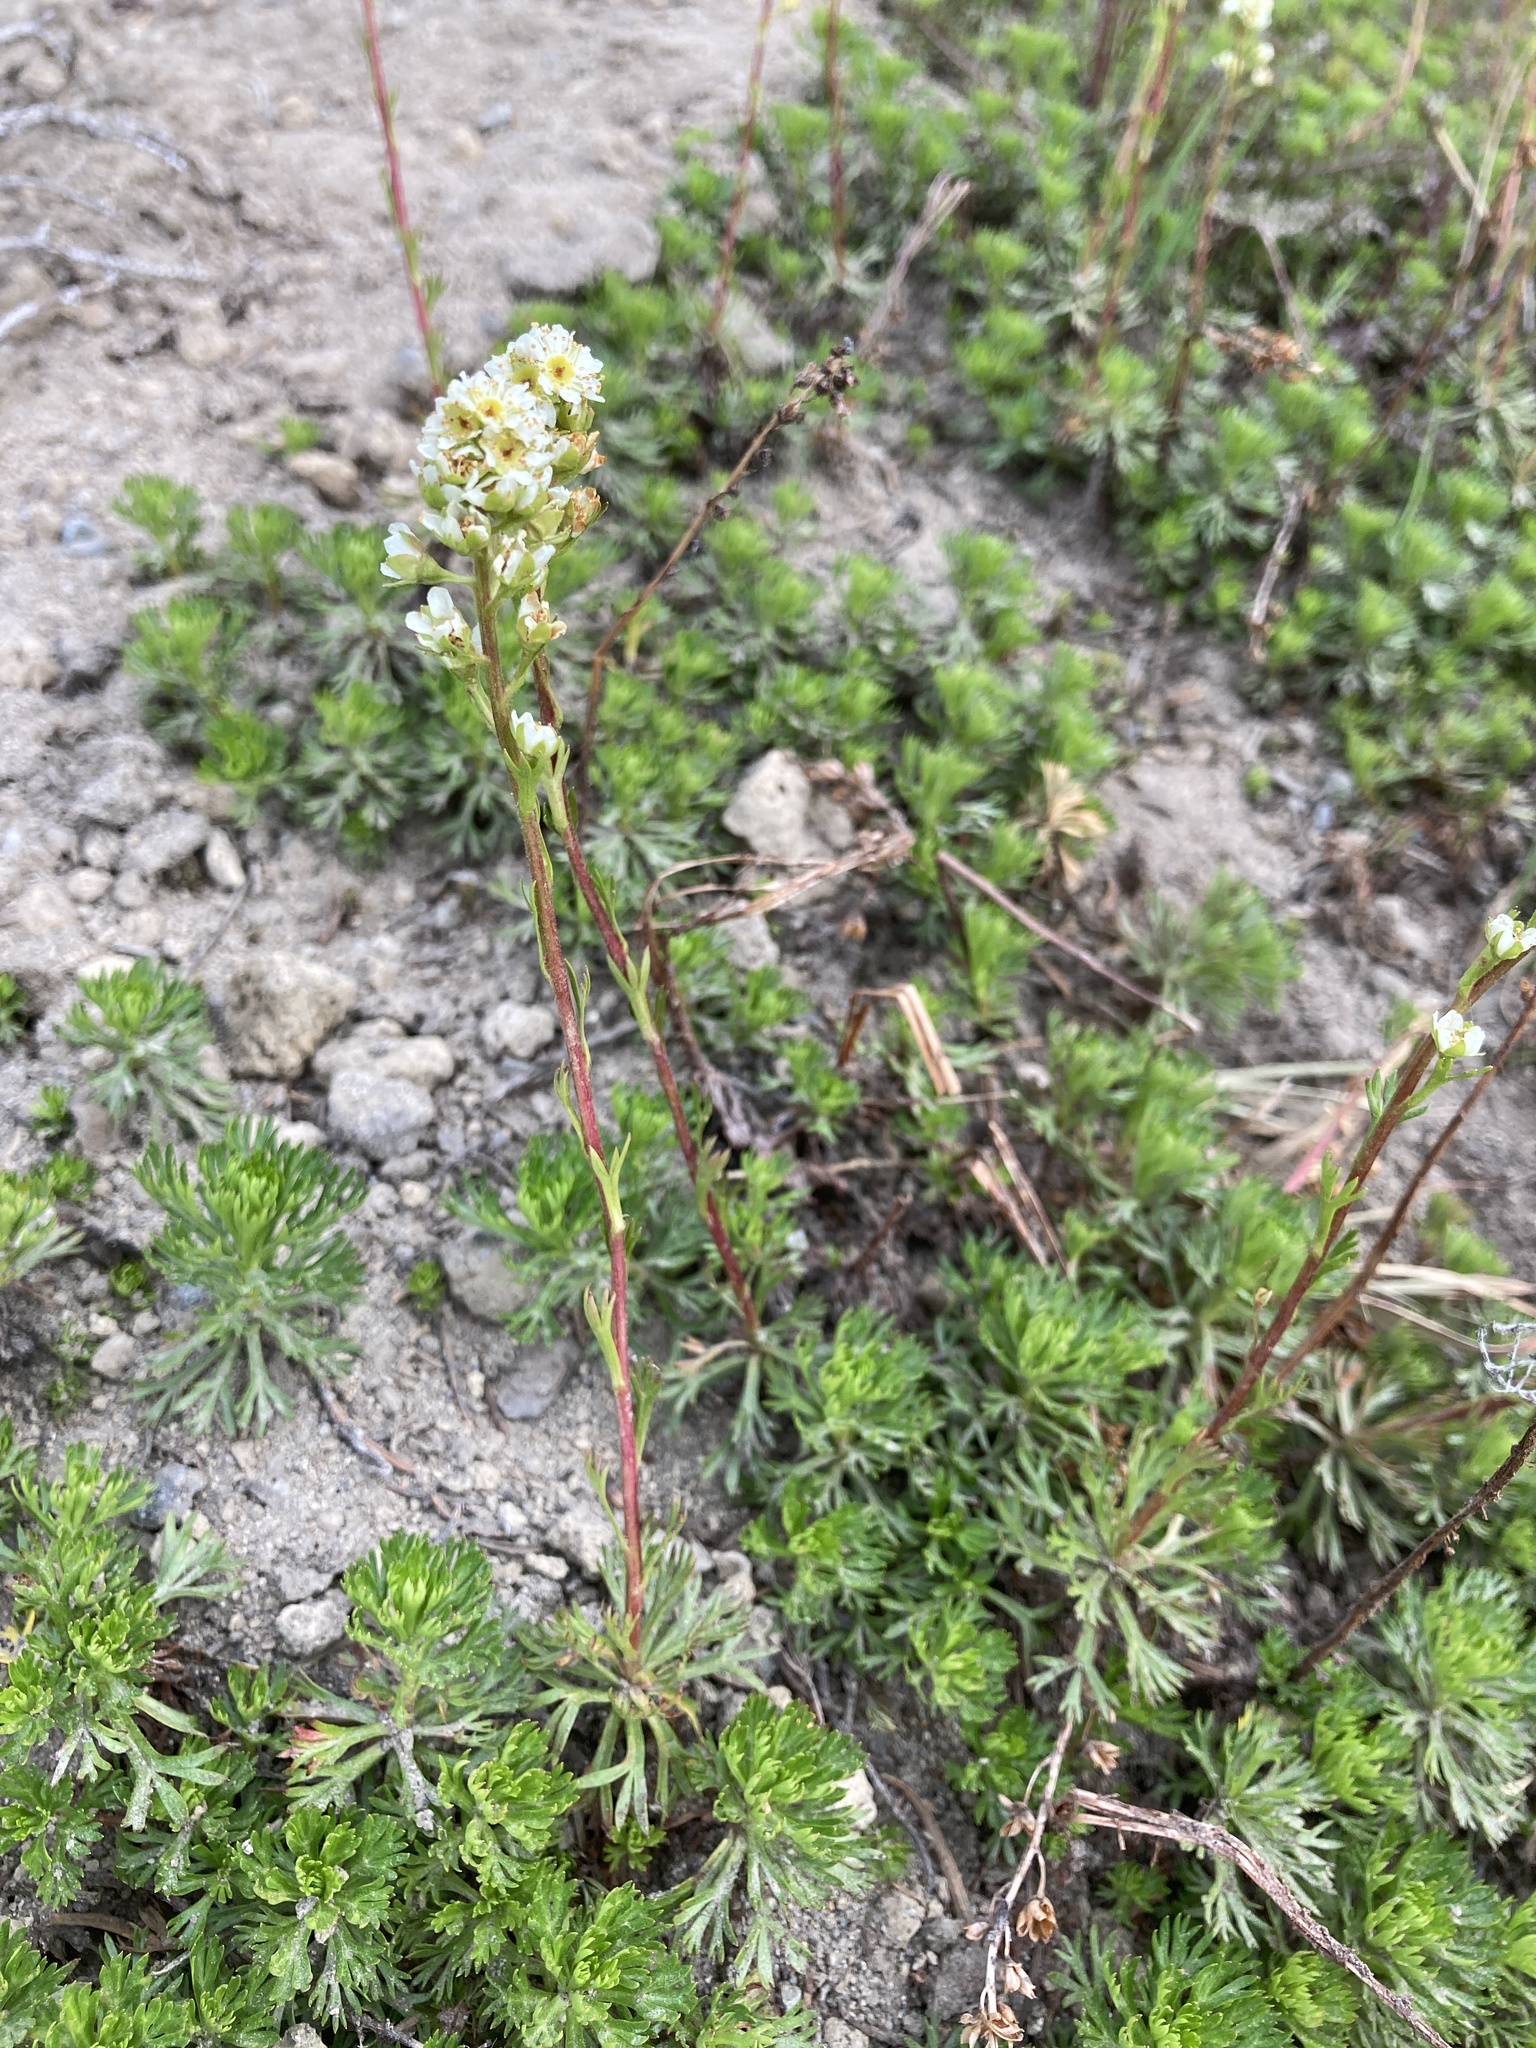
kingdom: Plantae
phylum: Tracheophyta
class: Magnoliopsida
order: Rosales
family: Rosaceae
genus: Luetkea
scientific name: Luetkea pectinata
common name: Partridgefoot
